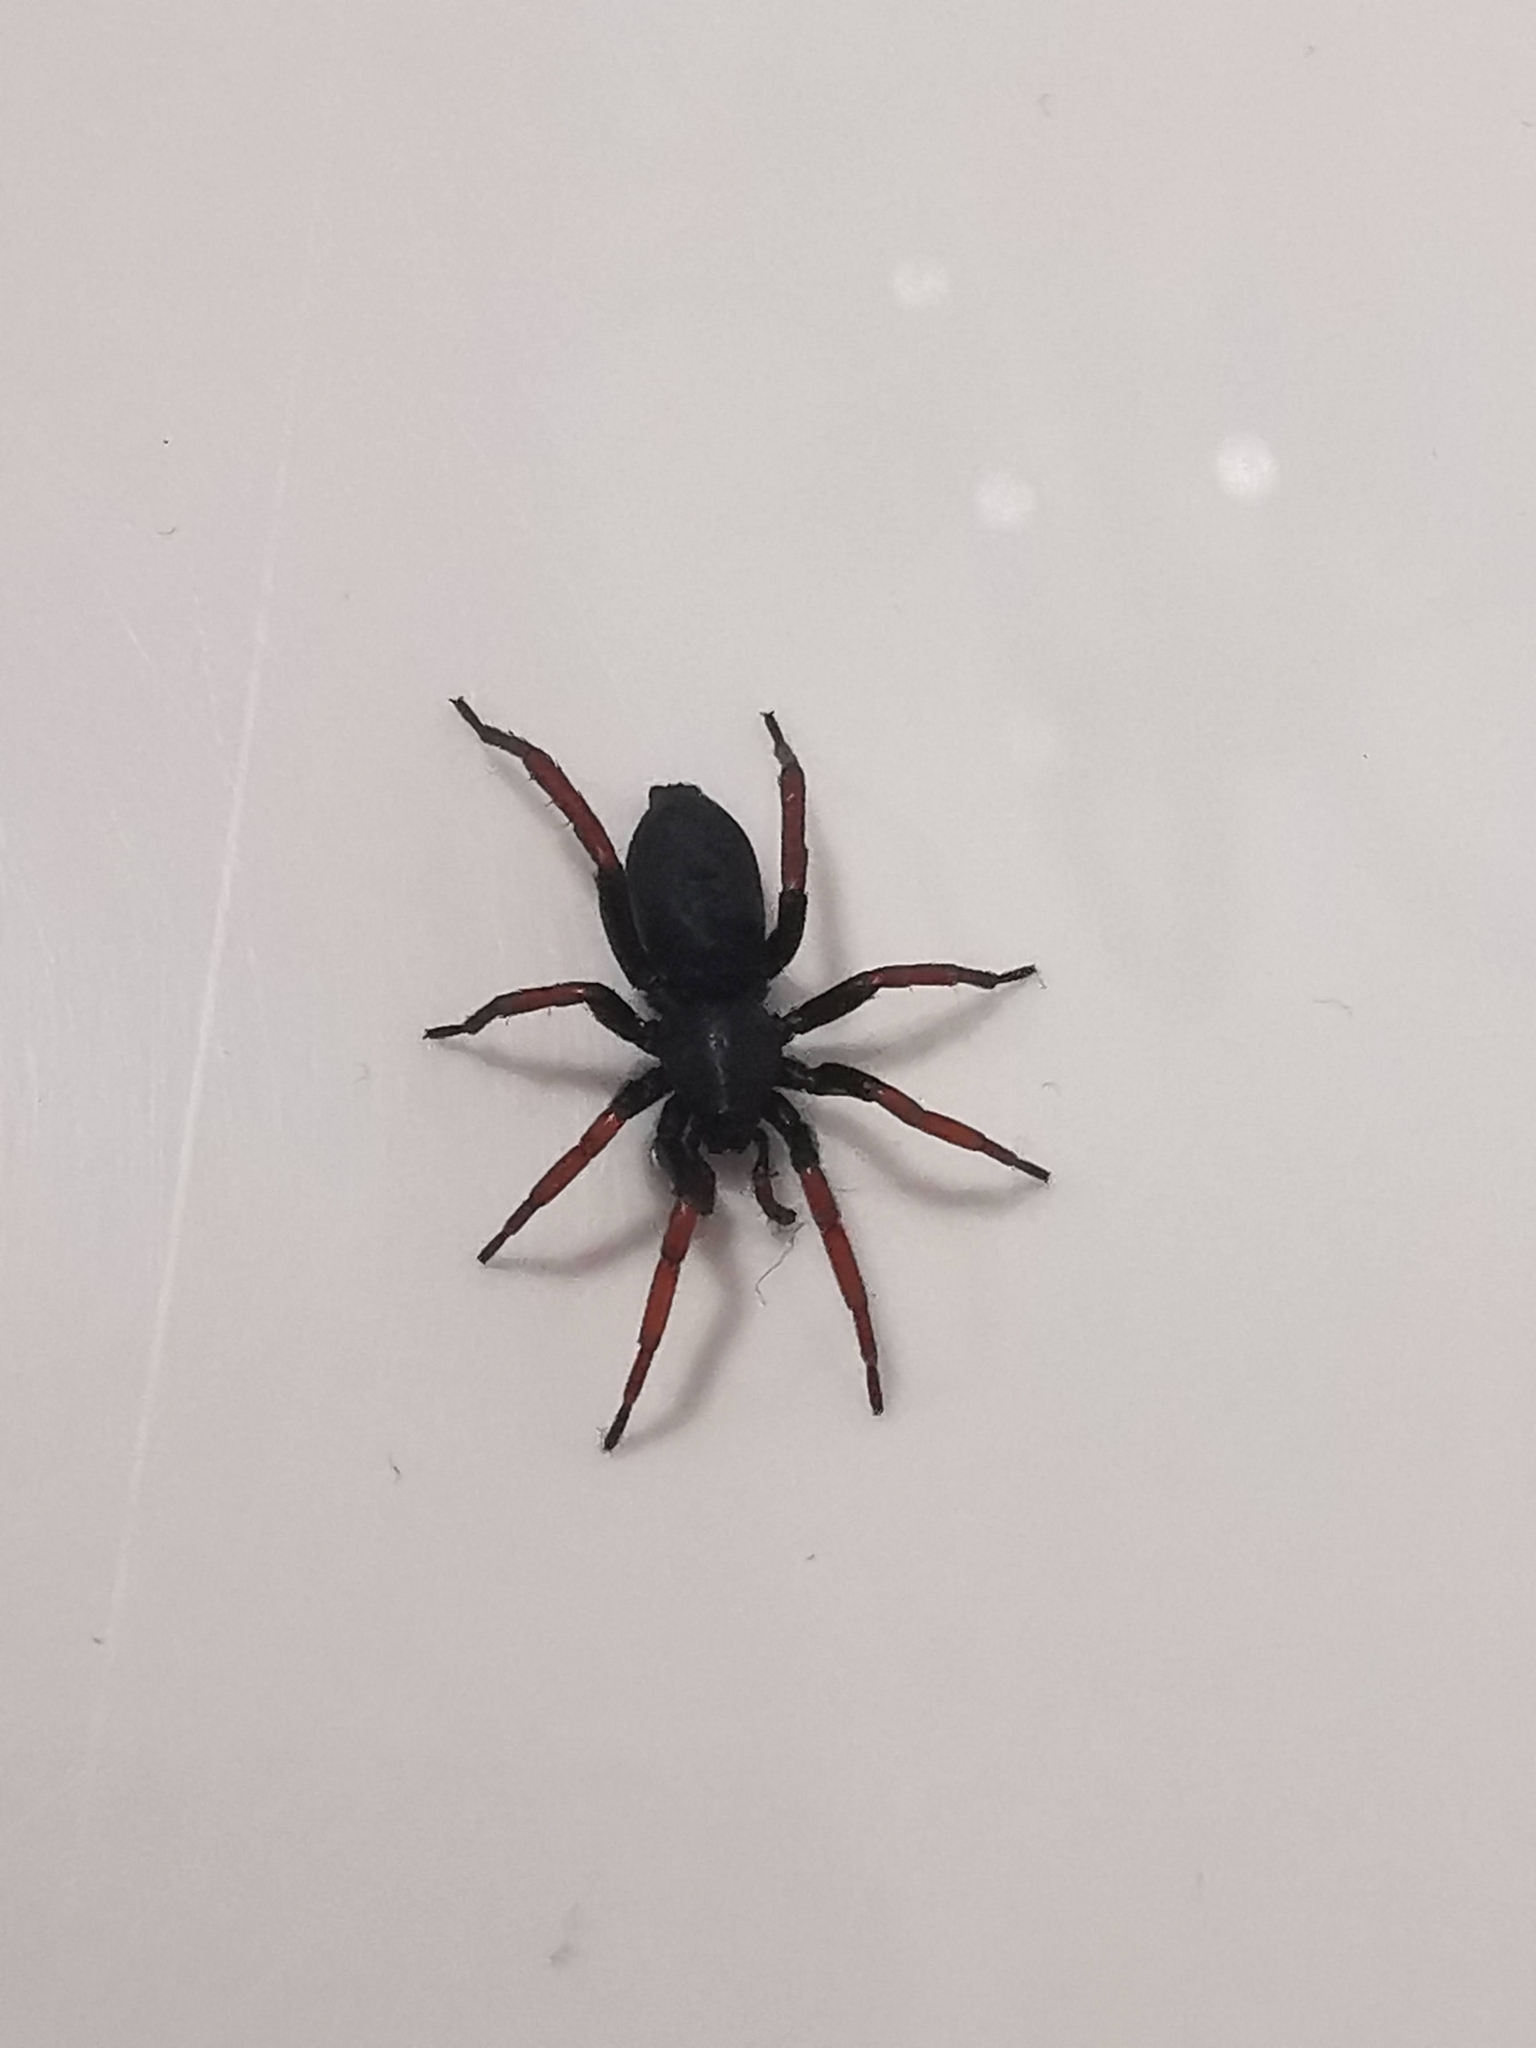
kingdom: Animalia
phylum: Arthropoda
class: Arachnida
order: Araneae
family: Gnaphosidae
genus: Trachyzelotes
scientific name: Trachyzelotes pedestris
